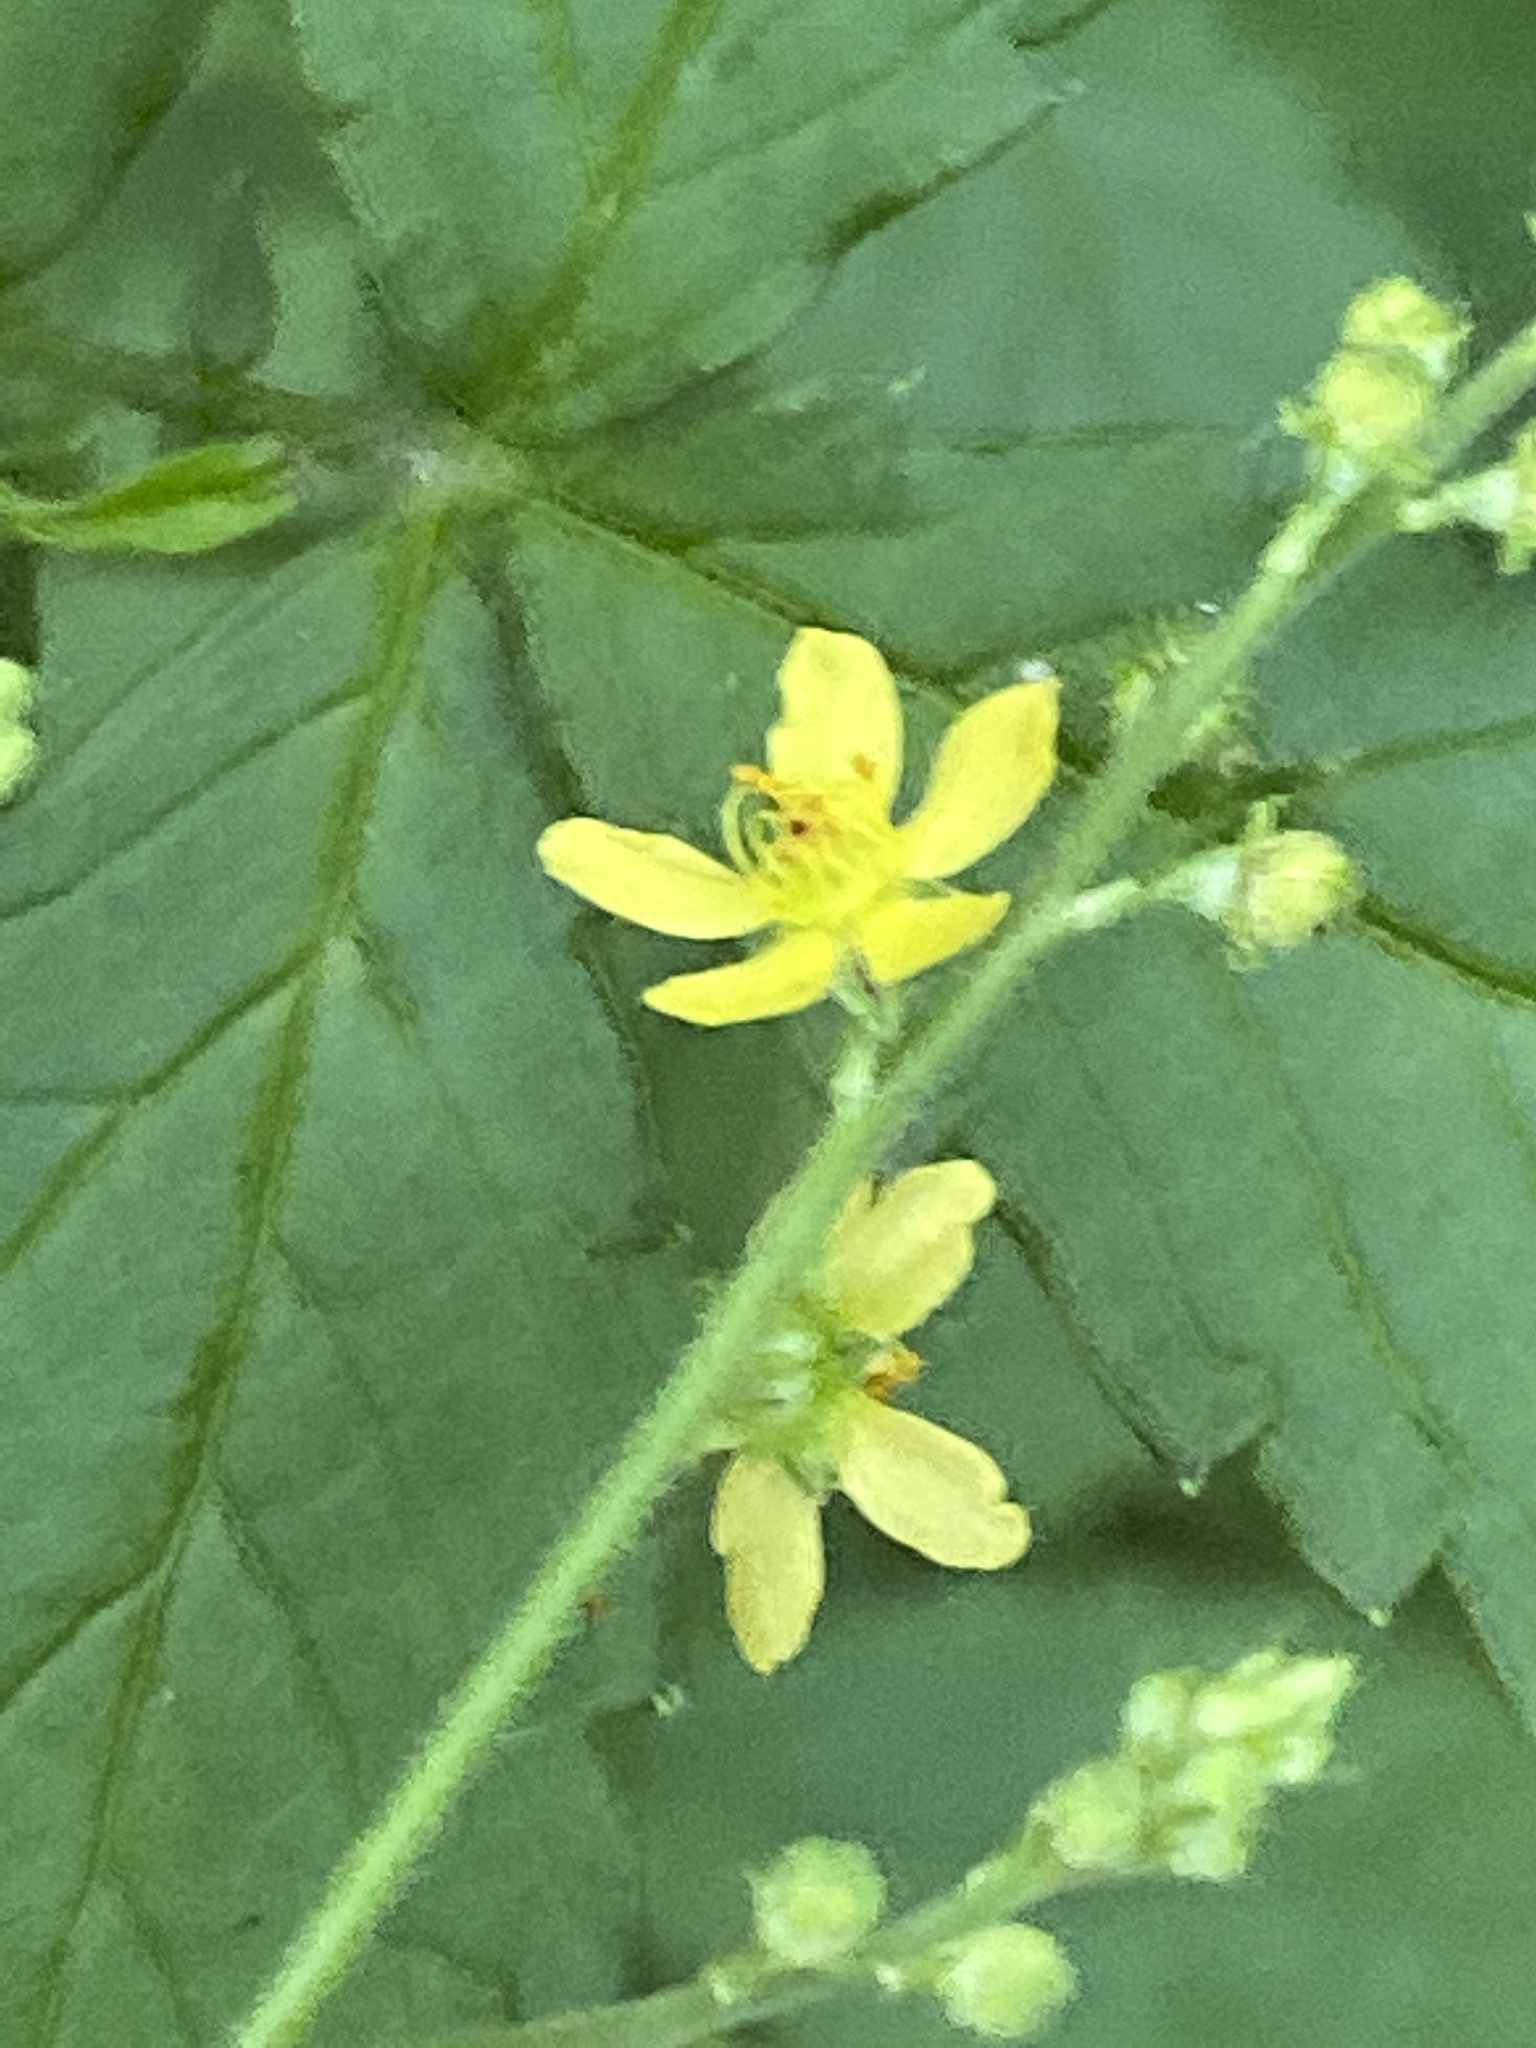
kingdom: Plantae
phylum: Tracheophyta
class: Magnoliopsida
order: Rosales
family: Rosaceae
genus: Agrimonia
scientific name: Agrimonia rostellata
